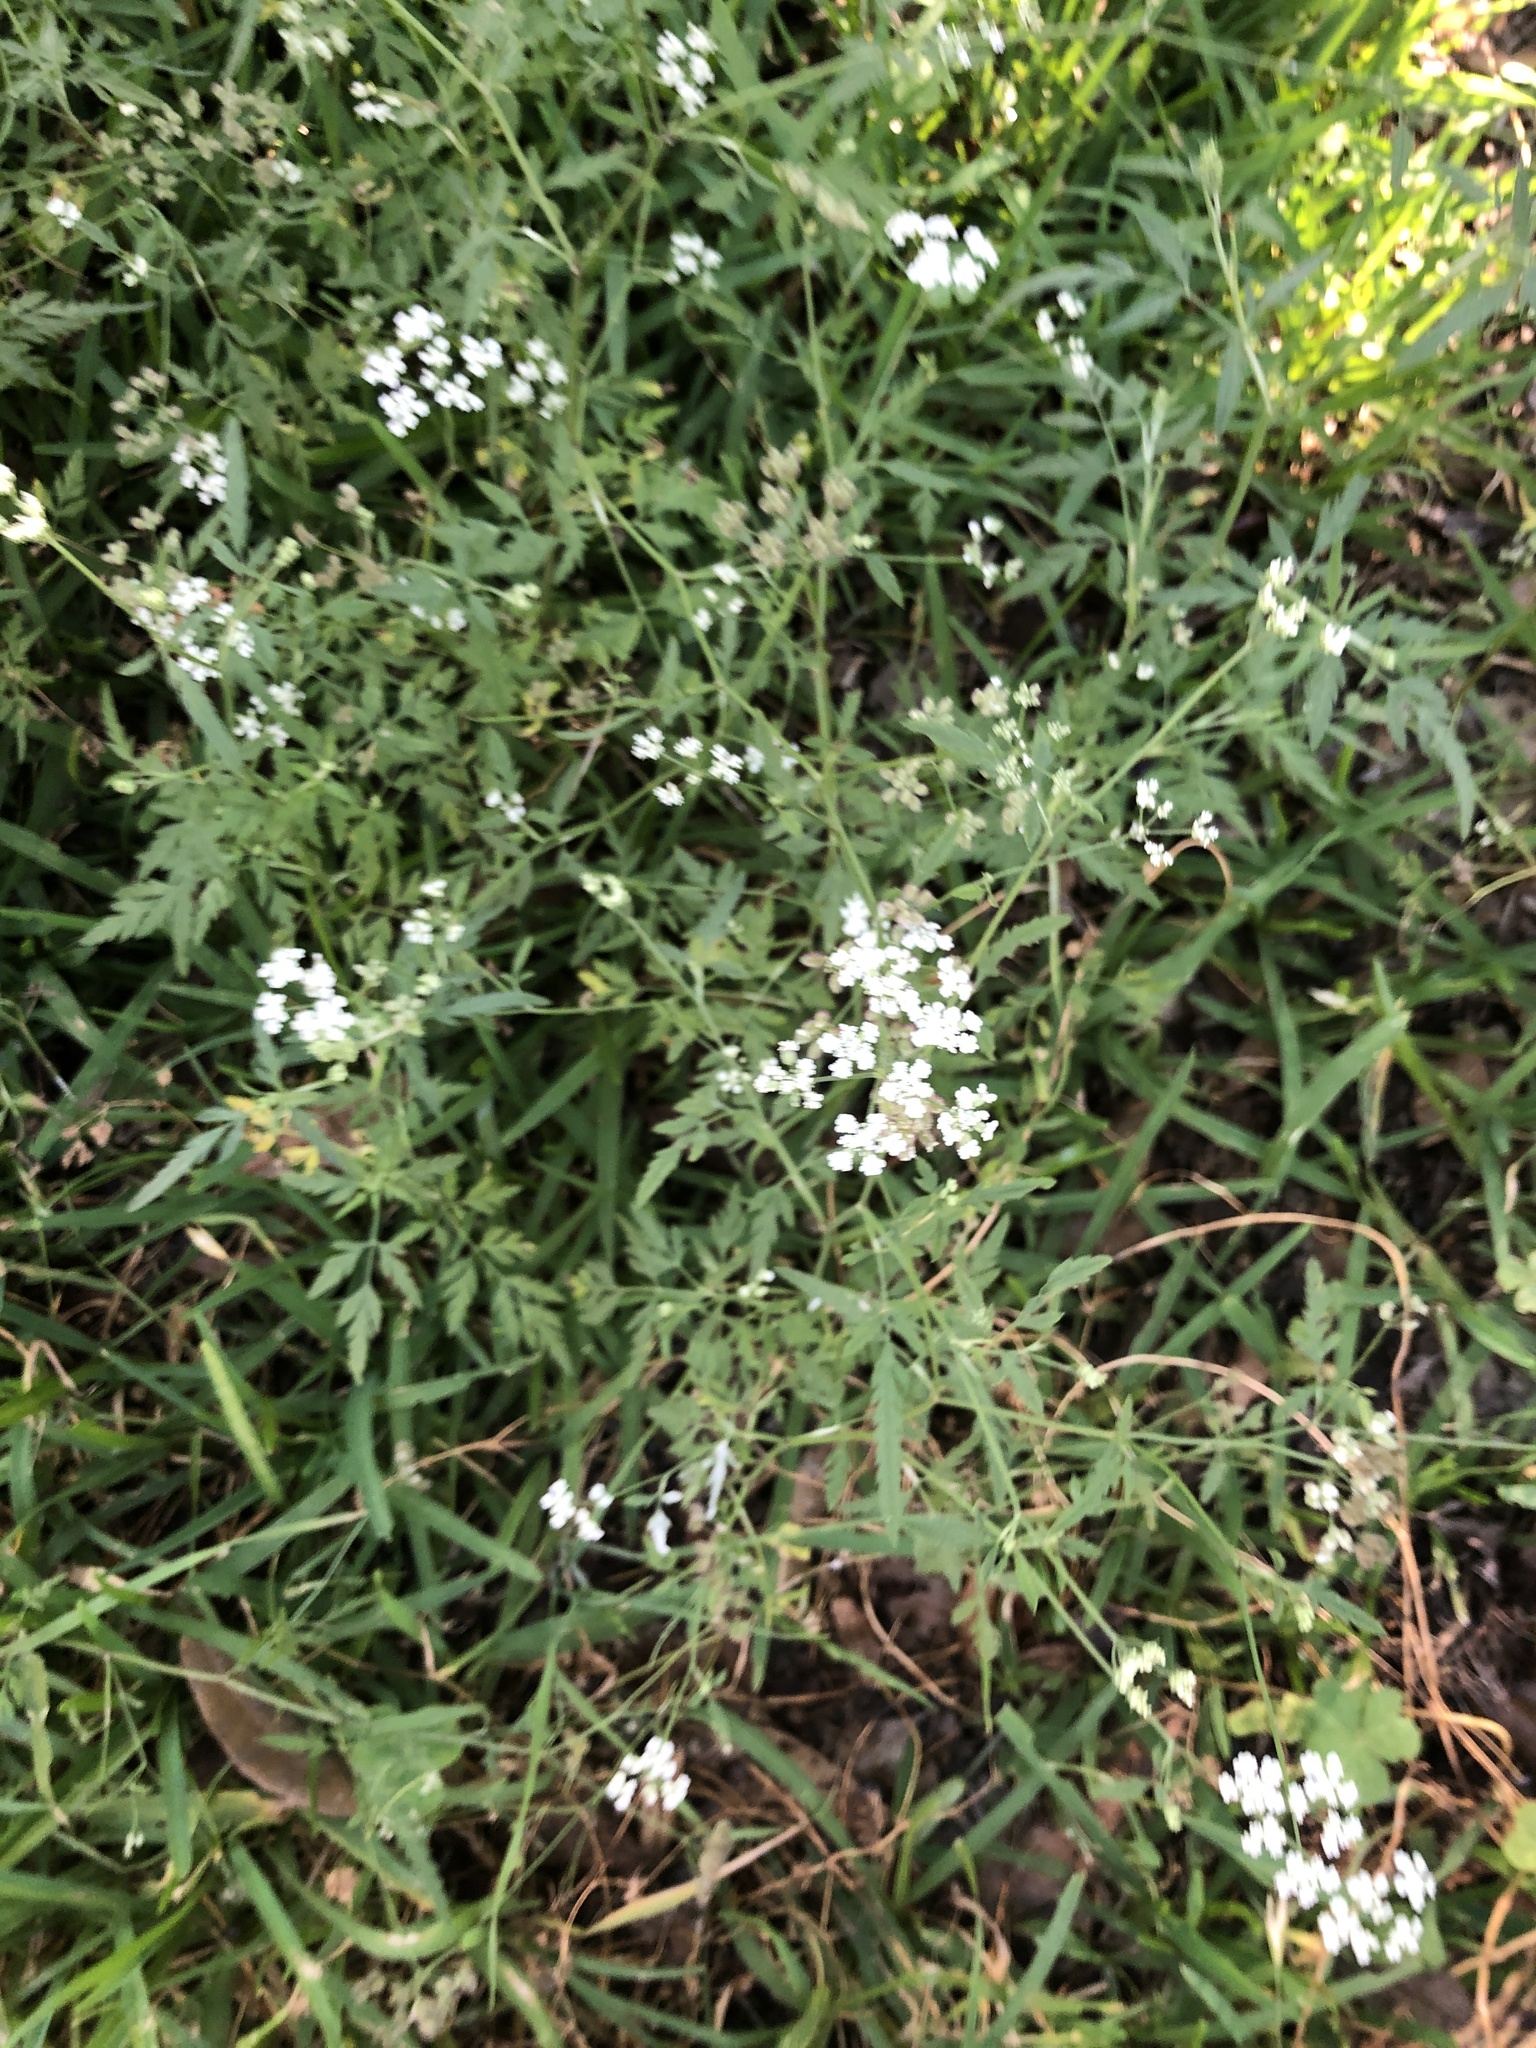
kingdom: Plantae
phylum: Tracheophyta
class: Magnoliopsida
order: Apiales
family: Apiaceae
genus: Torilis
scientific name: Torilis arvensis
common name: Spreading hedge-parsley
